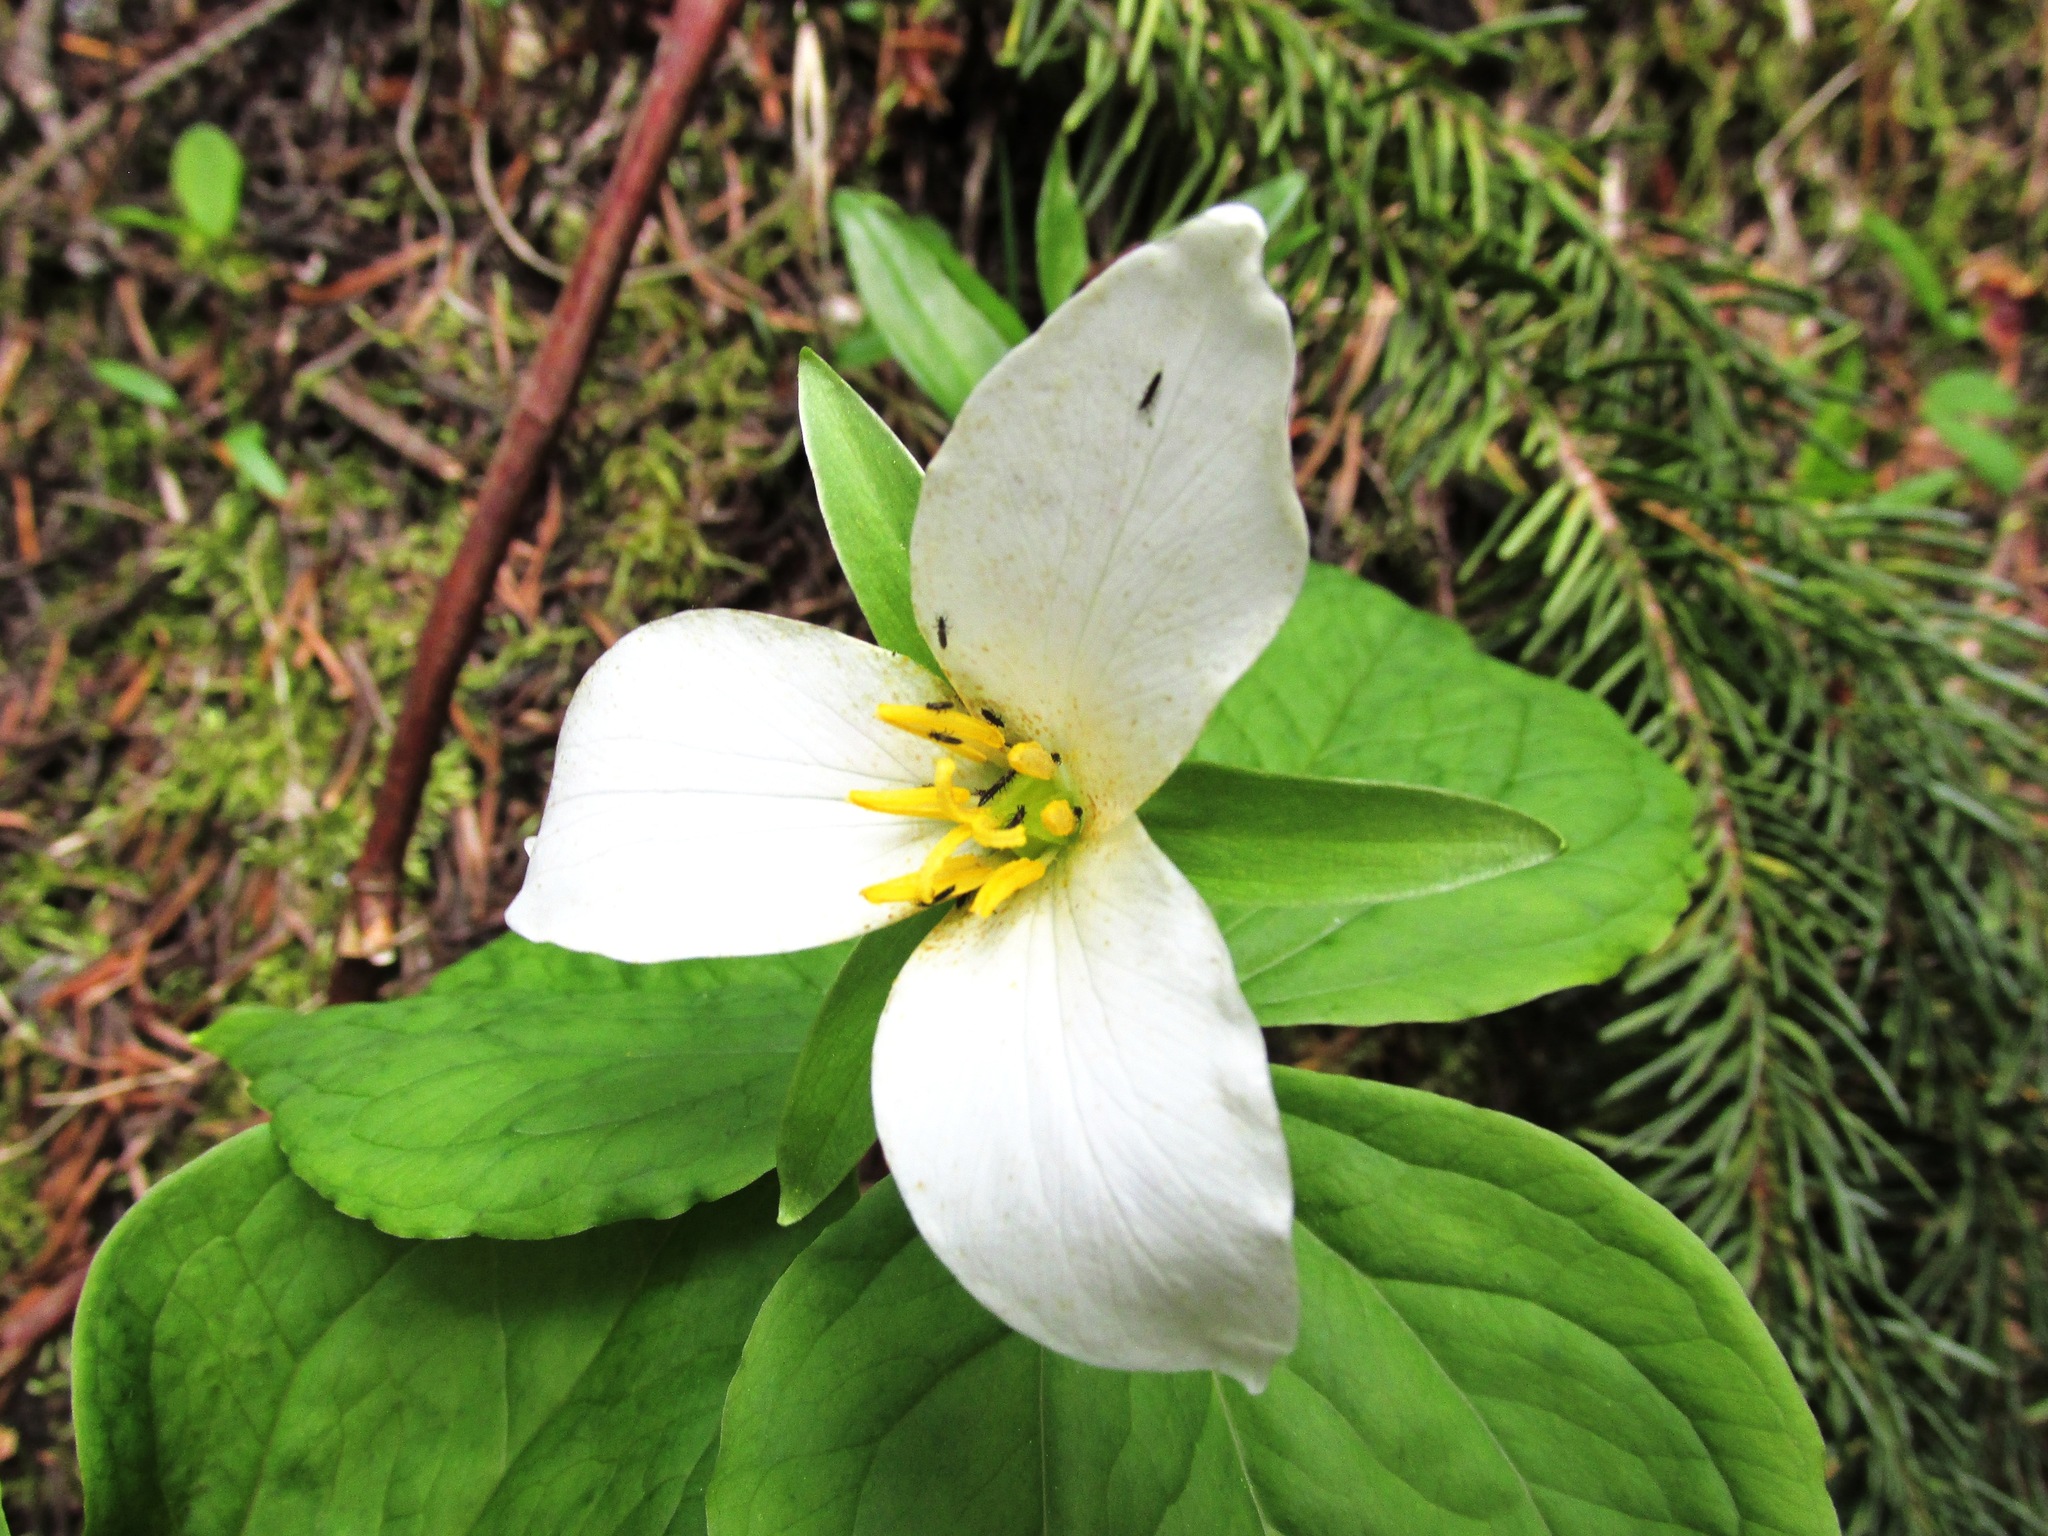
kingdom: Plantae
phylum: Tracheophyta
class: Liliopsida
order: Liliales
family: Melanthiaceae
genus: Trillium
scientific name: Trillium ovatum
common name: Pacific trillium
